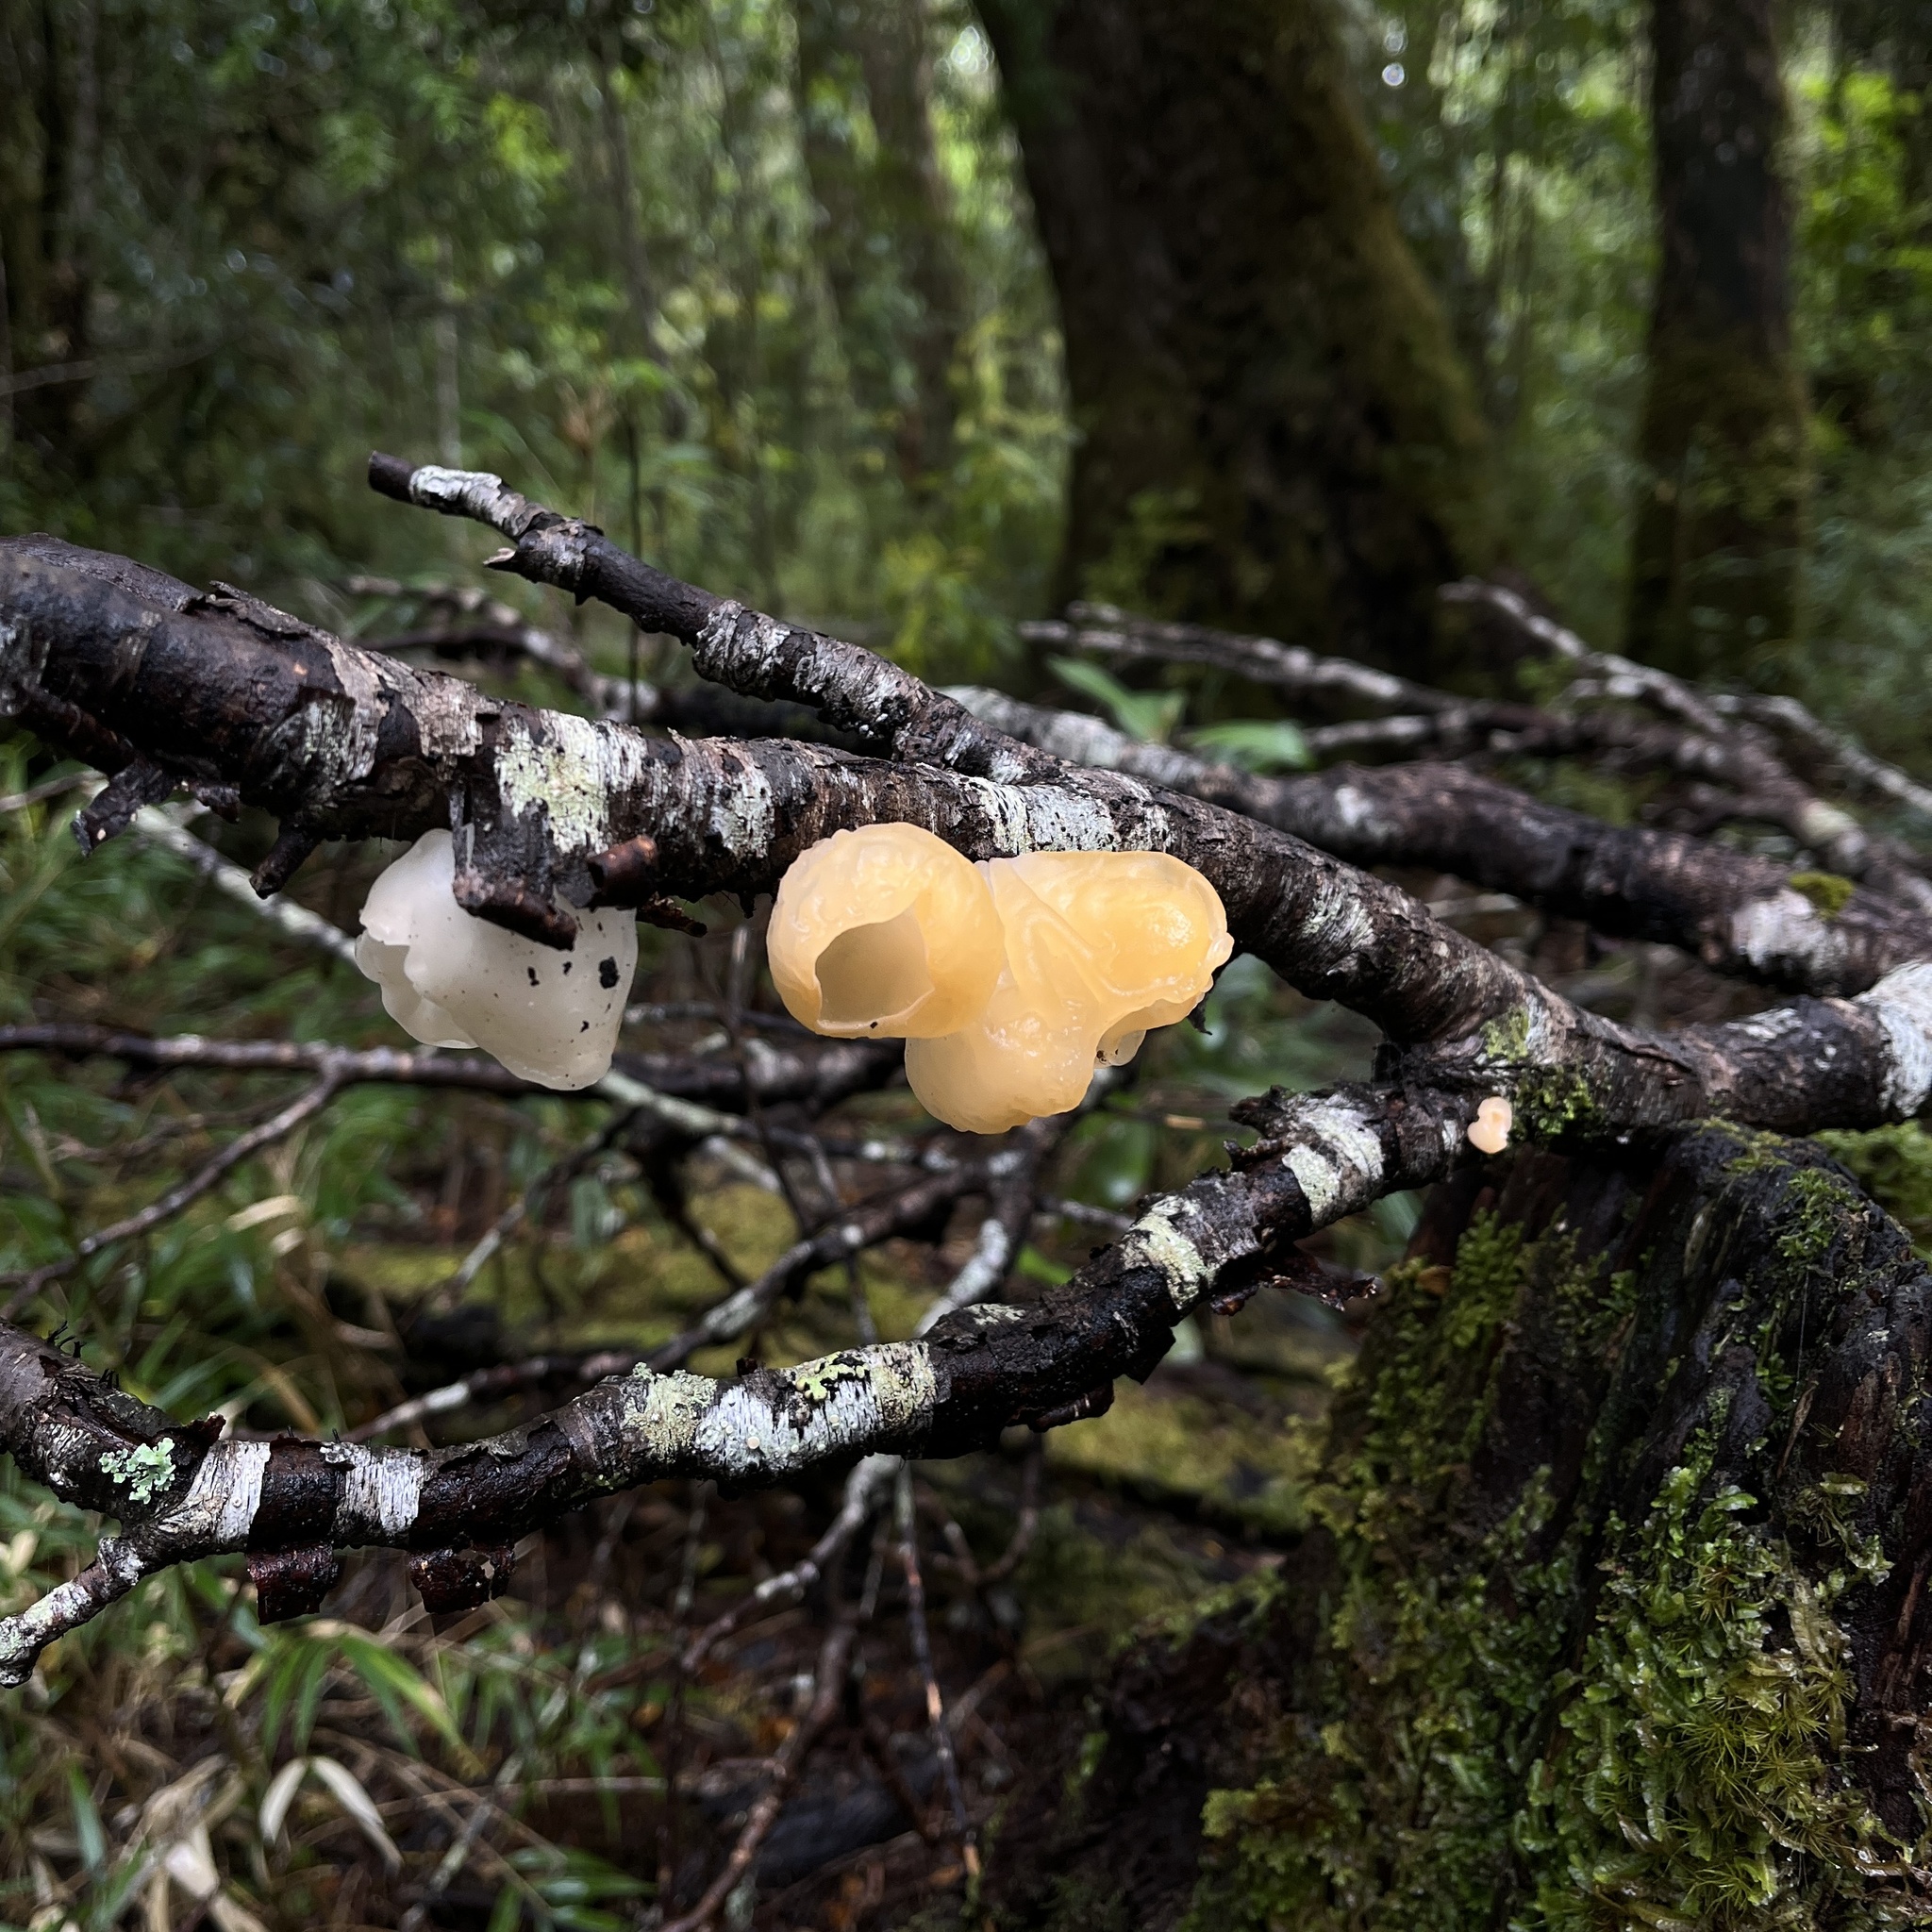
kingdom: Fungi
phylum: Basidiomycota
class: Agaricomycetes
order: Russulales
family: Stereaceae
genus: Aleurodiscus
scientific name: Aleurodiscus vitellinus
